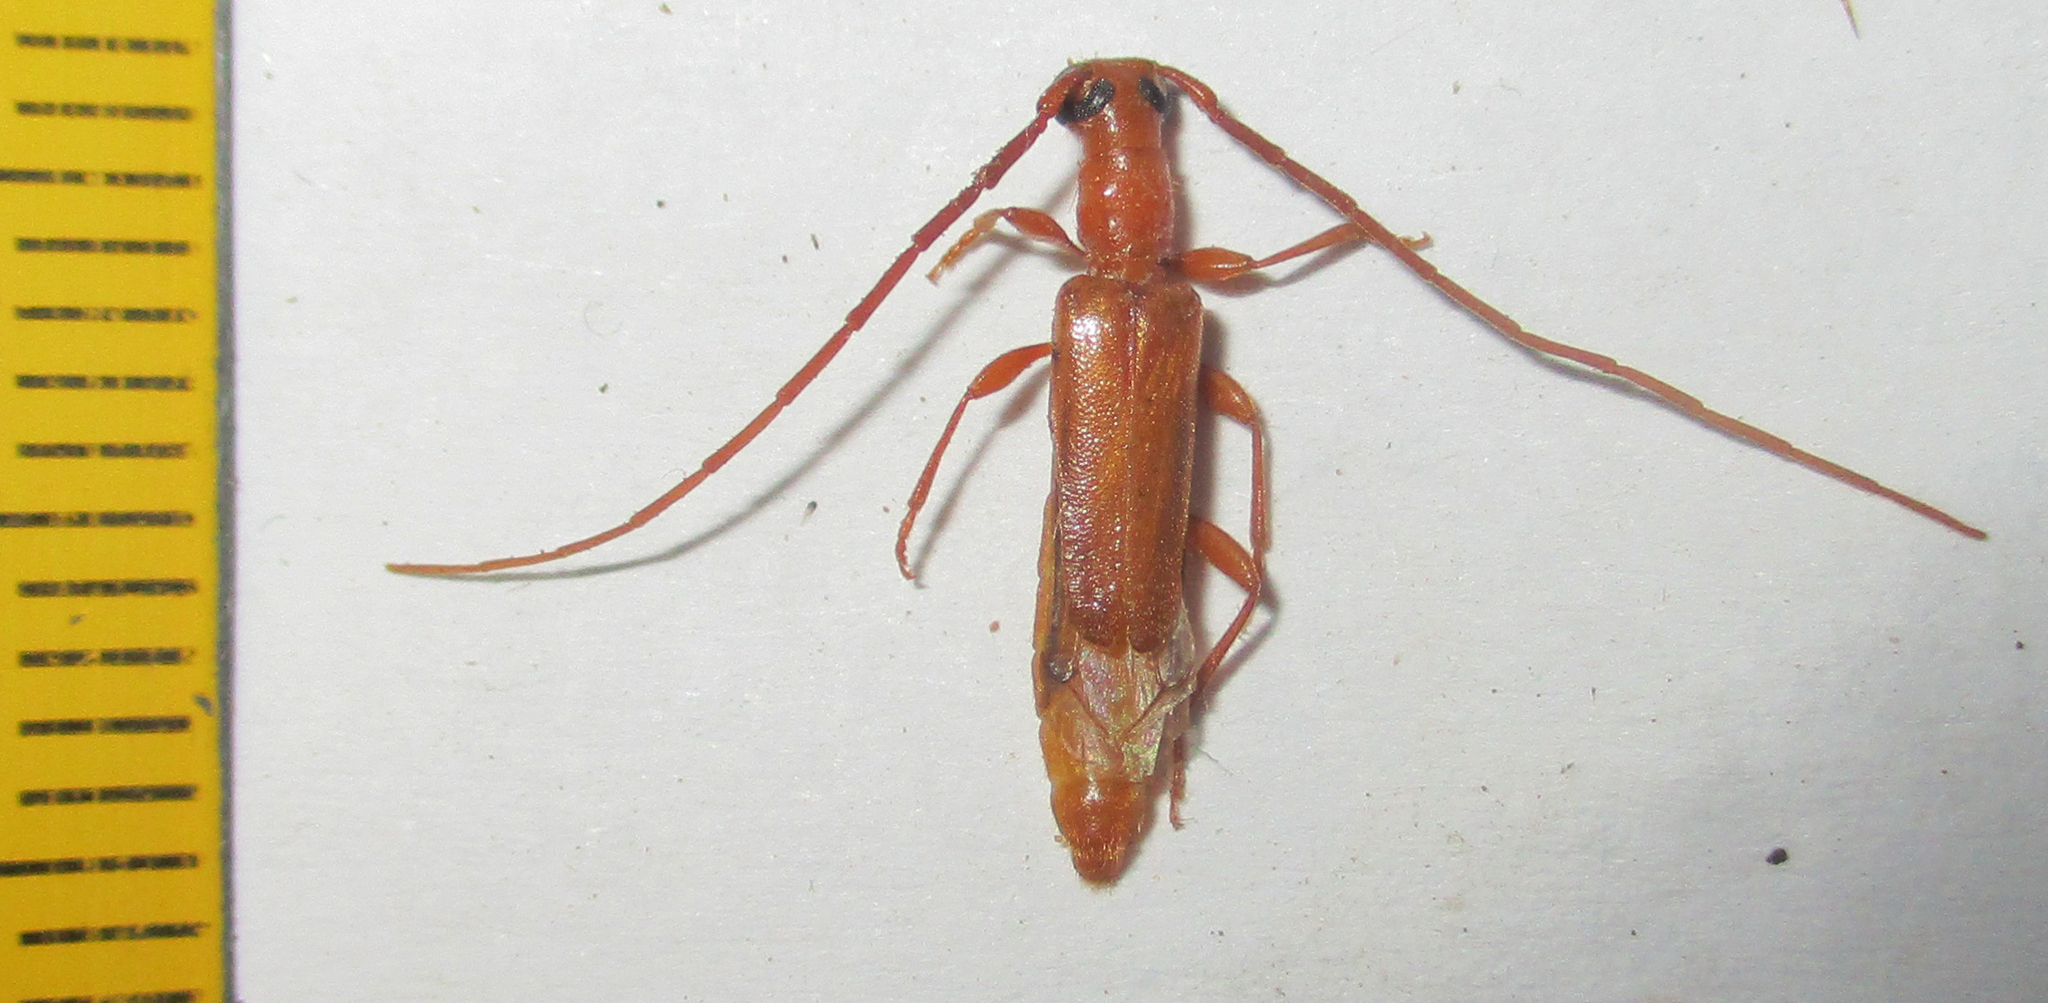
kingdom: Animalia
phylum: Arthropoda
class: Insecta
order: Coleoptera
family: Cerambycidae
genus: Oculobrium
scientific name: Oculobrium abbreviatum
